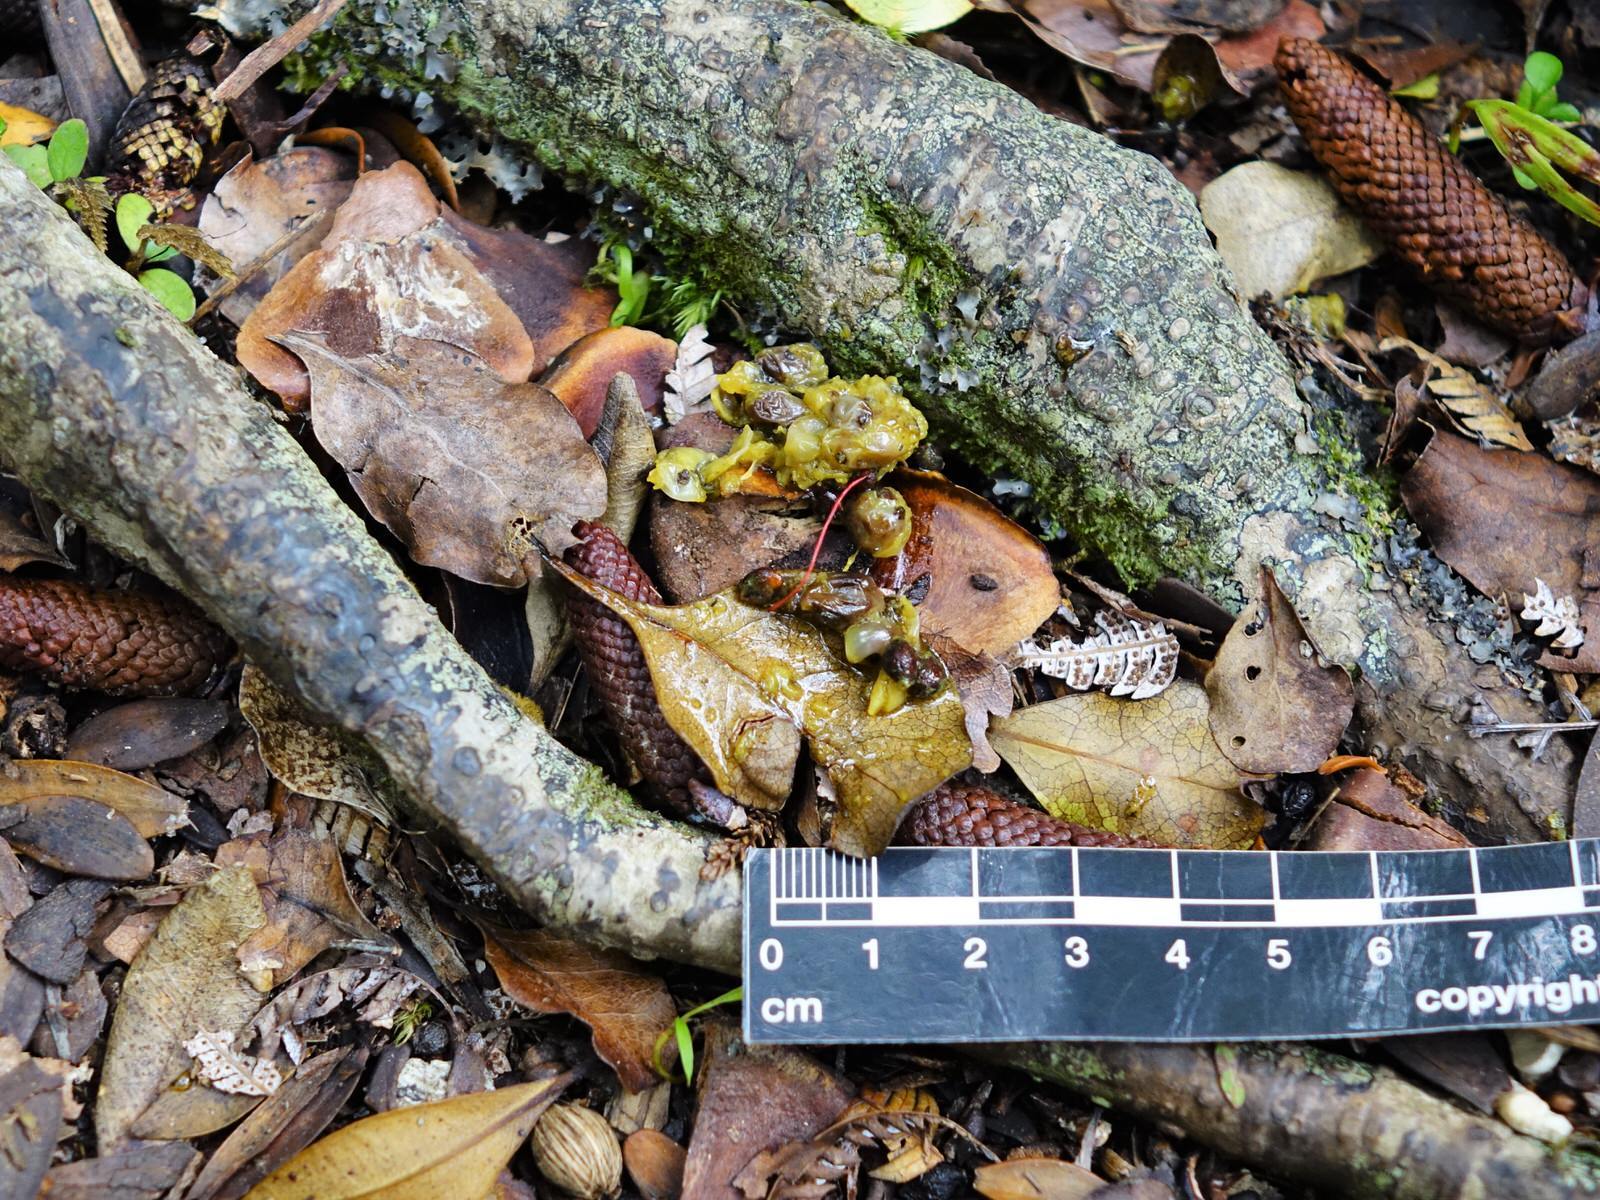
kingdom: Animalia
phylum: Chordata
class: Aves
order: Columbiformes
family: Columbidae
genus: Hemiphaga
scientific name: Hemiphaga novaeseelandiae
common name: New zealand pigeon
